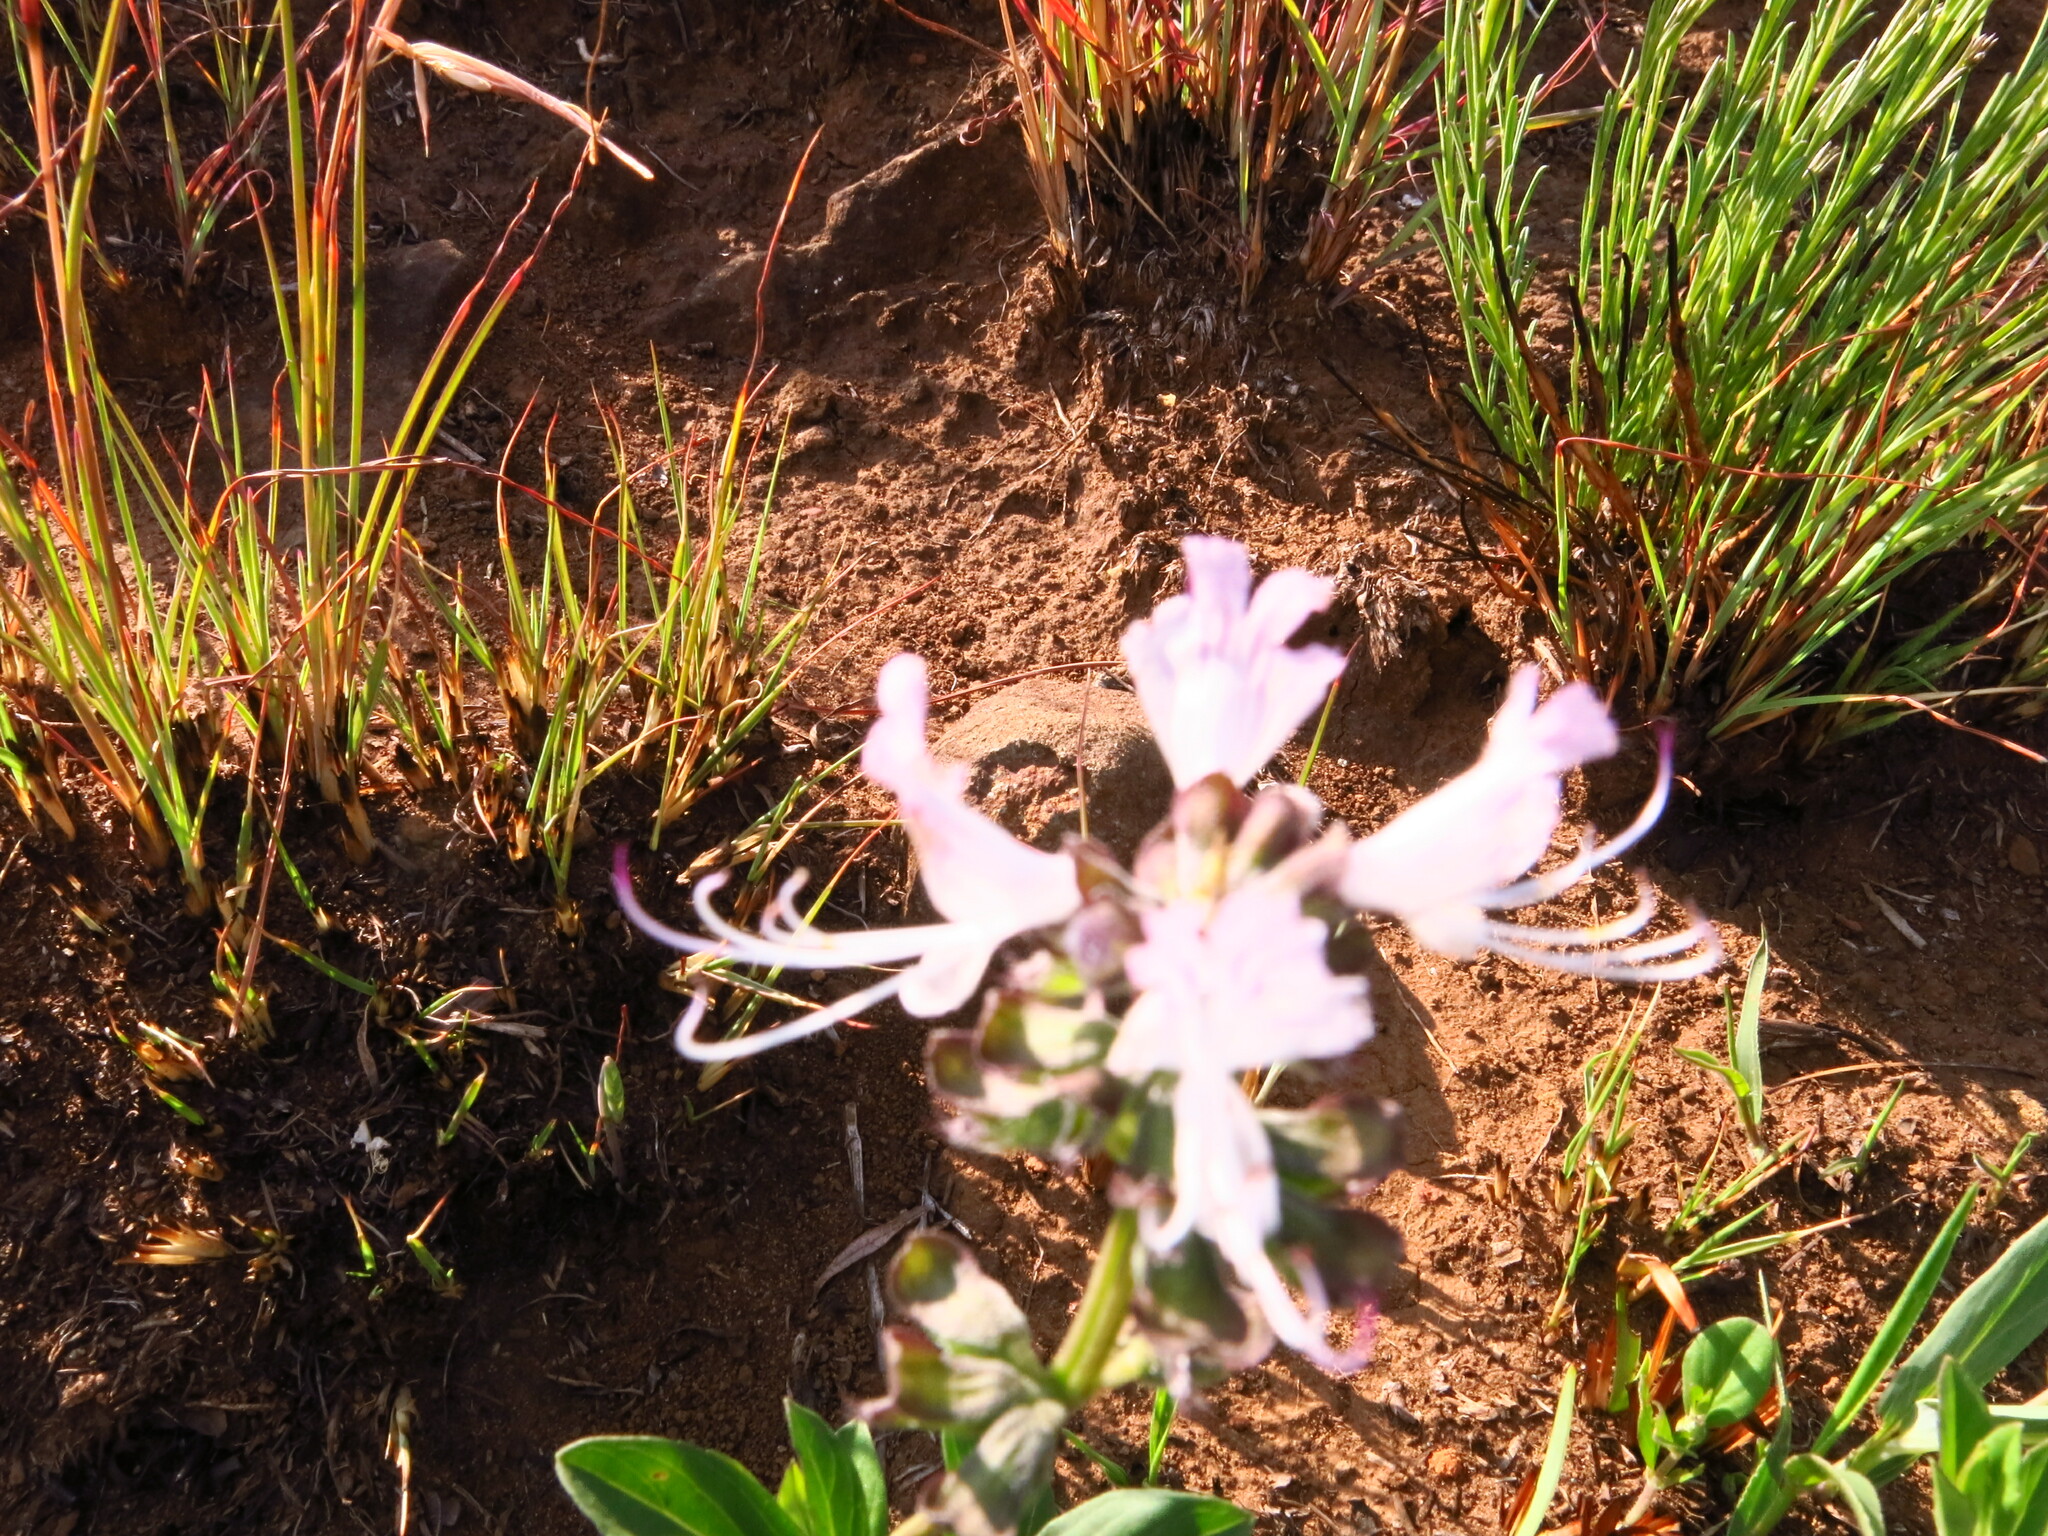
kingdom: Plantae
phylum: Tracheophyta
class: Magnoliopsida
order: Lamiales
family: Lamiaceae
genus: Ocimum
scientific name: Ocimum obovatum
